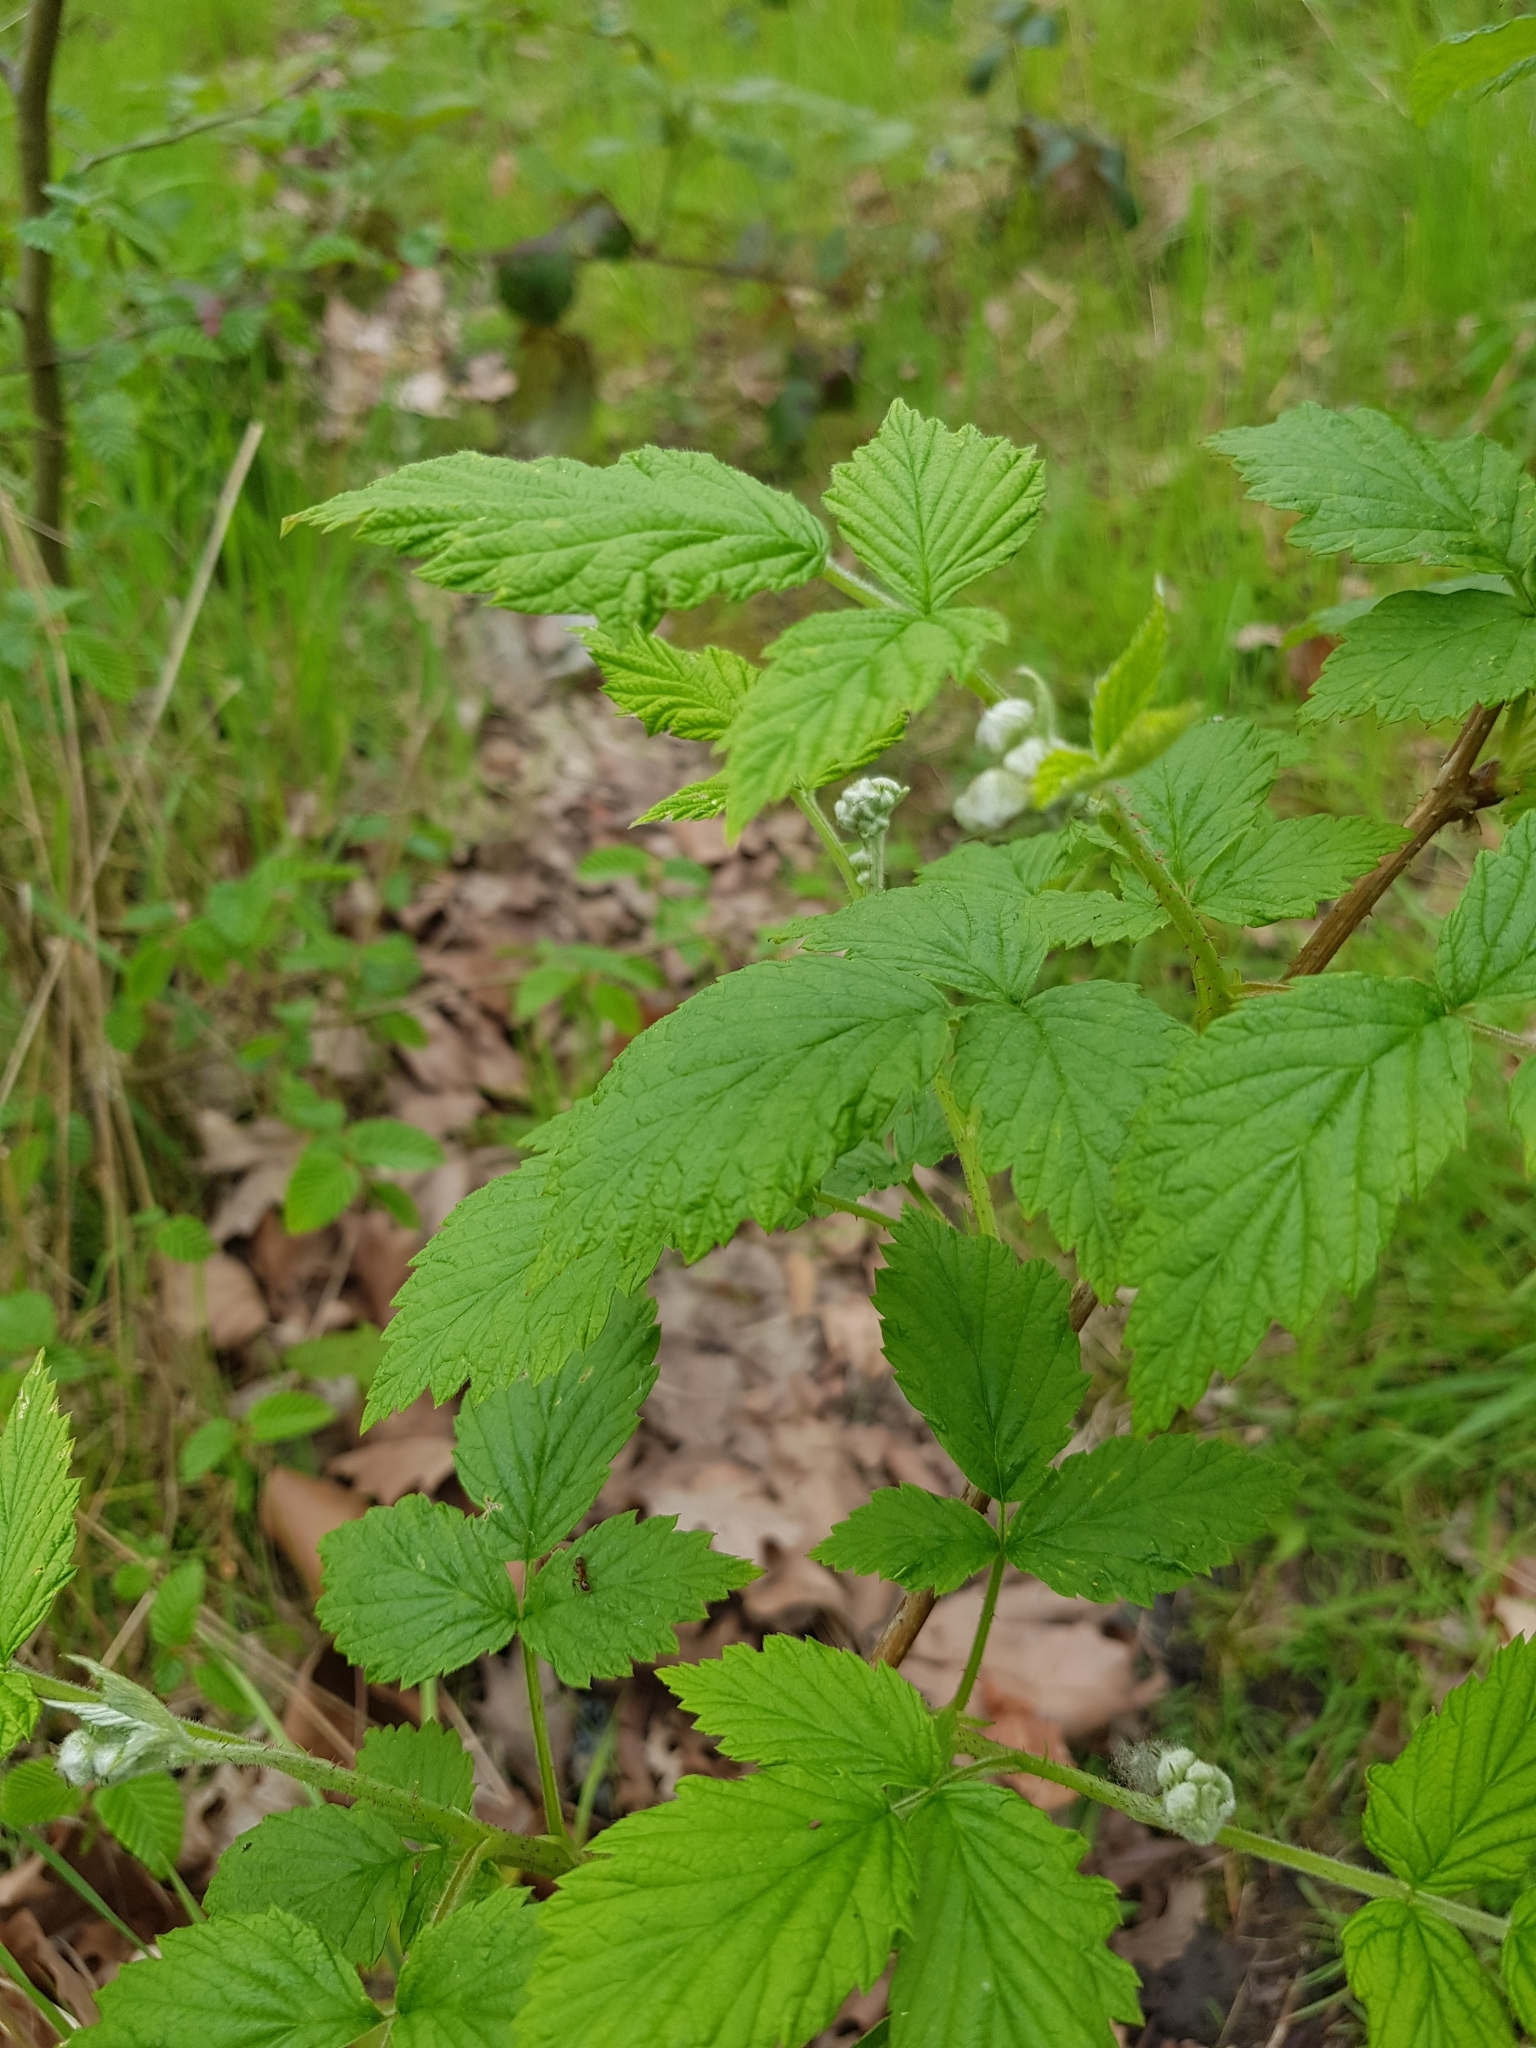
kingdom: Plantae
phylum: Tracheophyta
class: Magnoliopsida
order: Rosales
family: Rosaceae
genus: Rubus
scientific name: Rubus idaeus
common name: Raspberry
